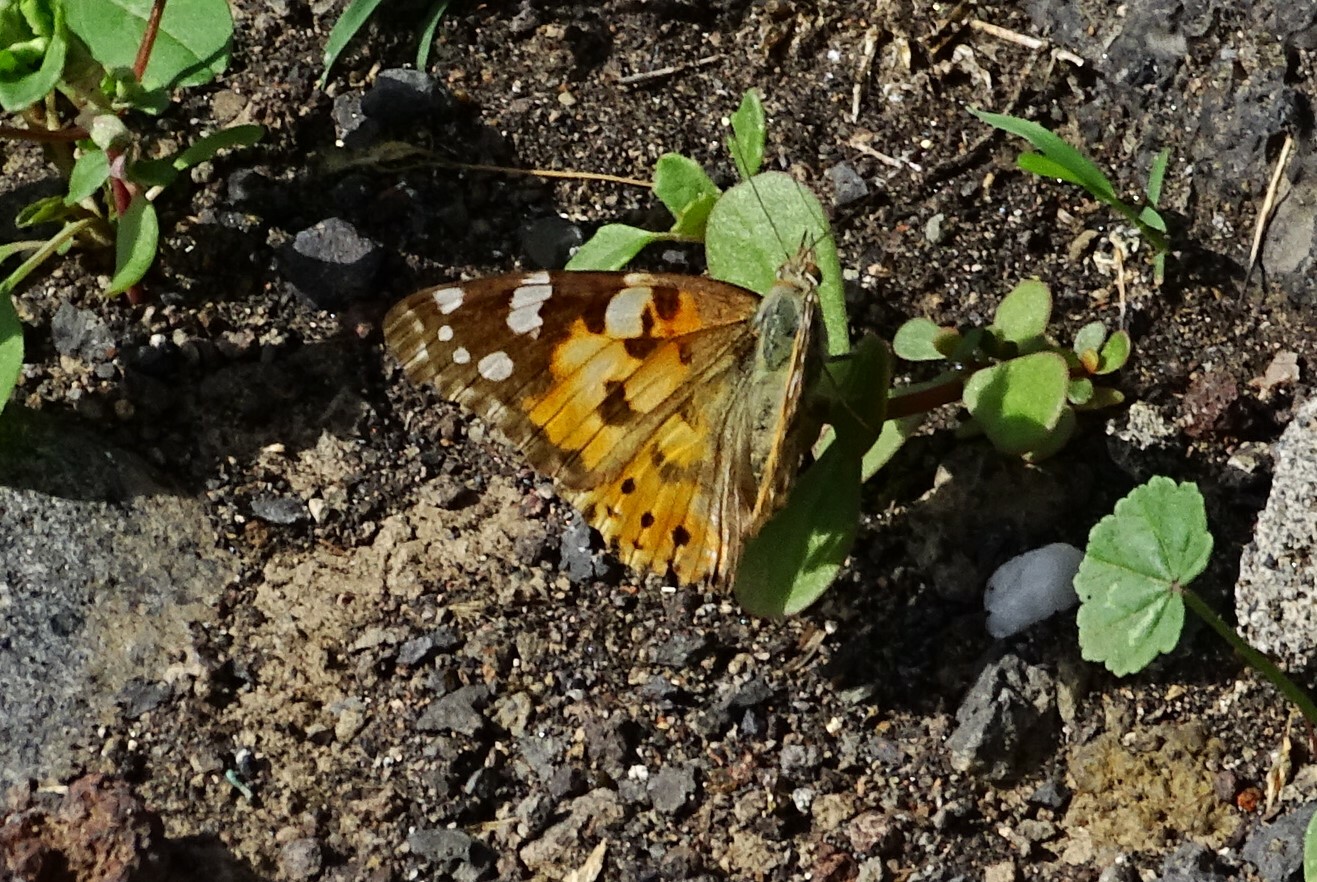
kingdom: Animalia
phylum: Arthropoda
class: Insecta
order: Lepidoptera
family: Nymphalidae
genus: Vanessa
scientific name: Vanessa cardui
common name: Painted lady
